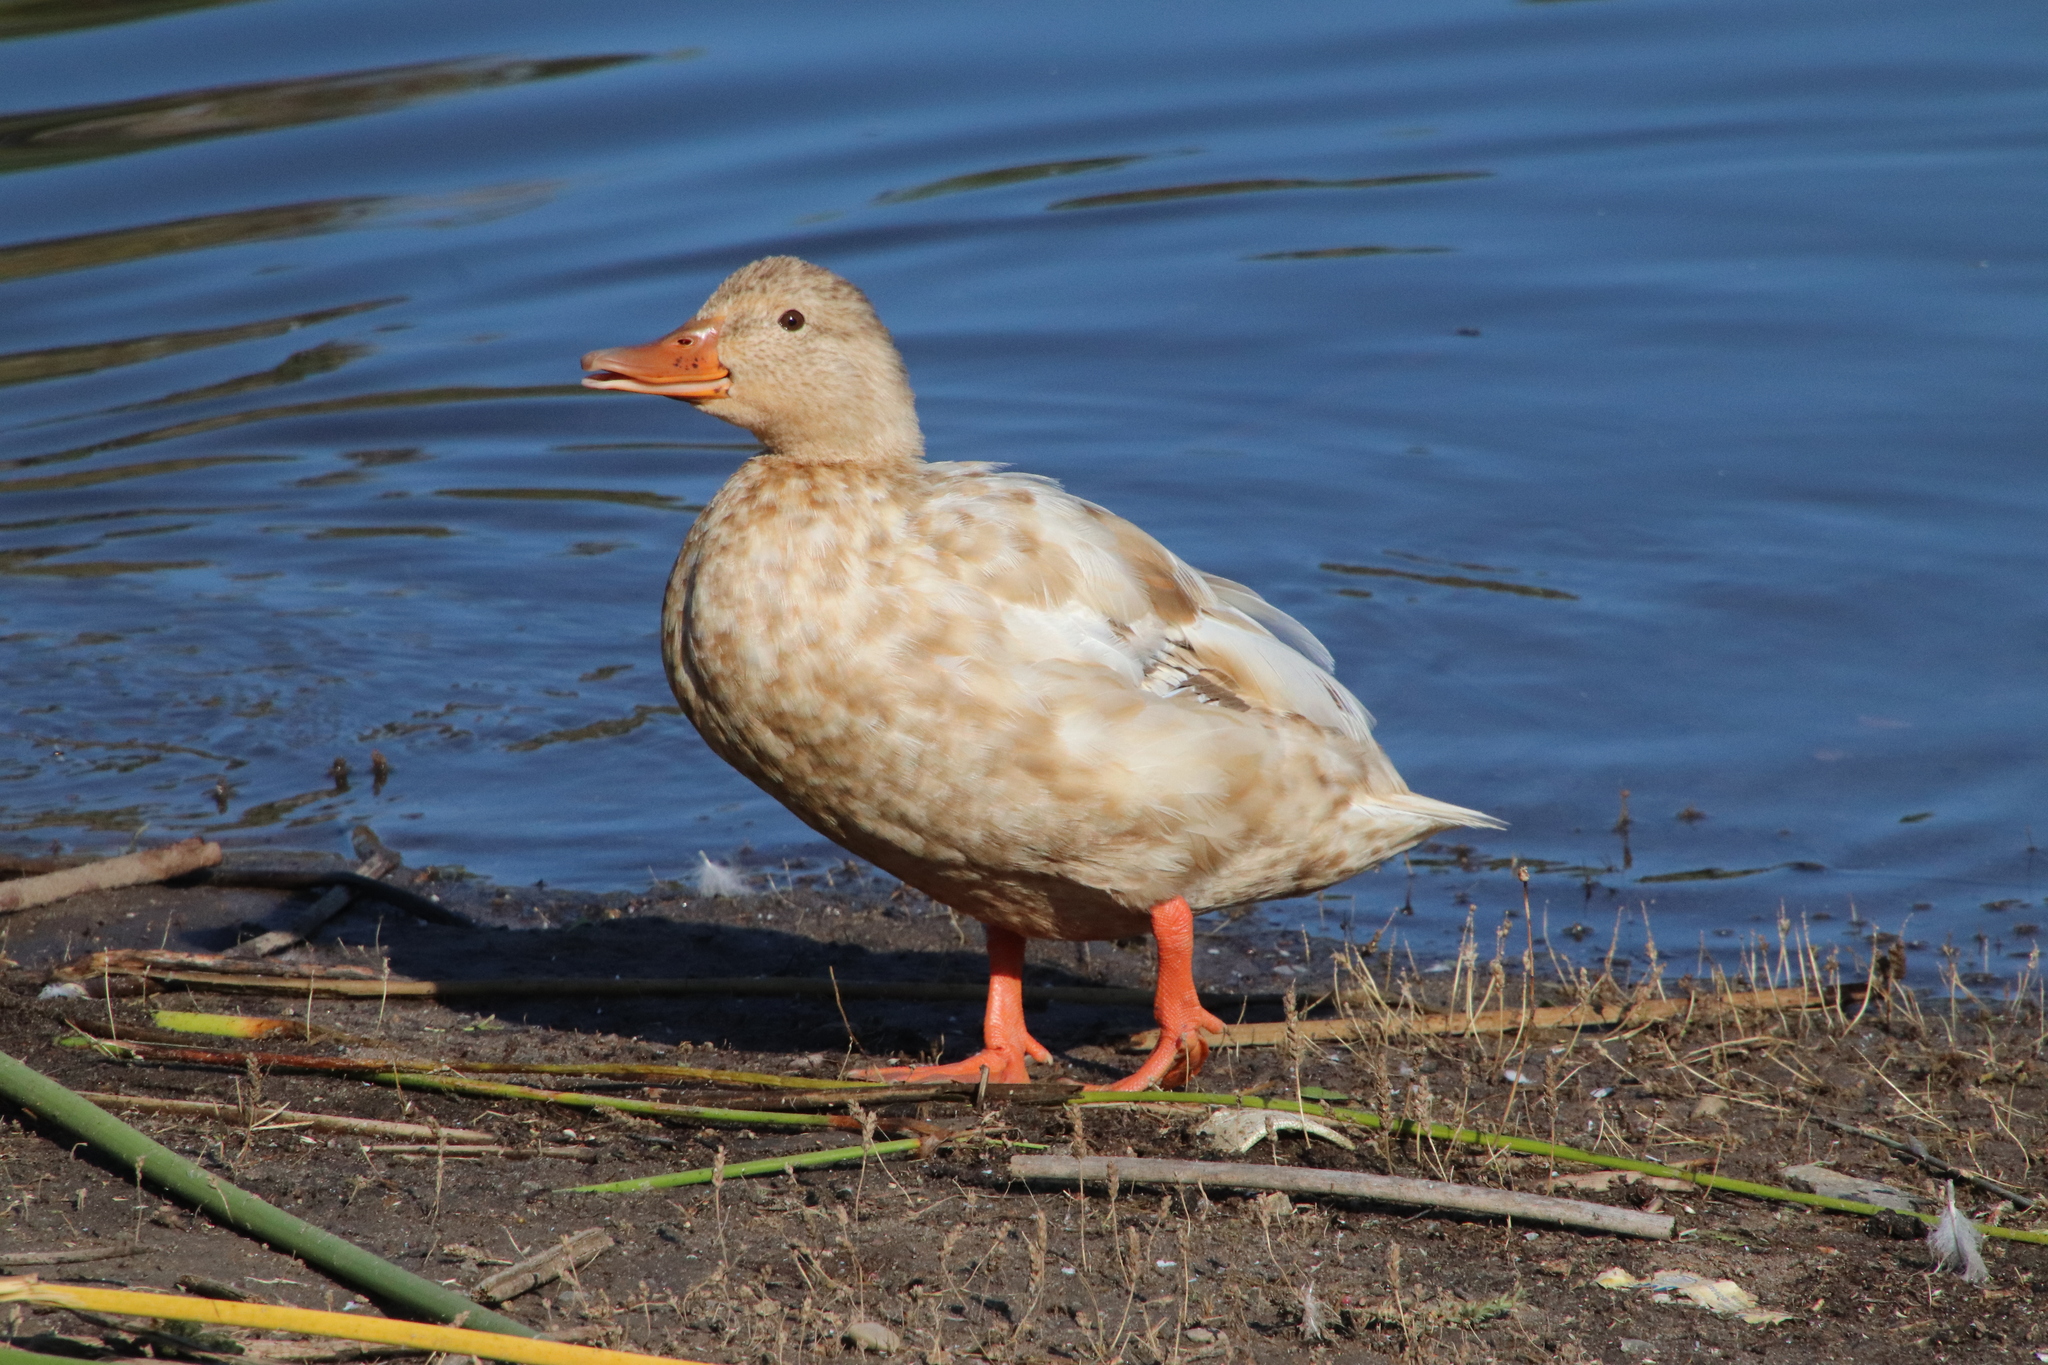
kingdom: Animalia
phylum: Chordata
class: Aves
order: Anseriformes
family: Anatidae
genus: Anas
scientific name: Anas platyrhynchos
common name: Mallard
